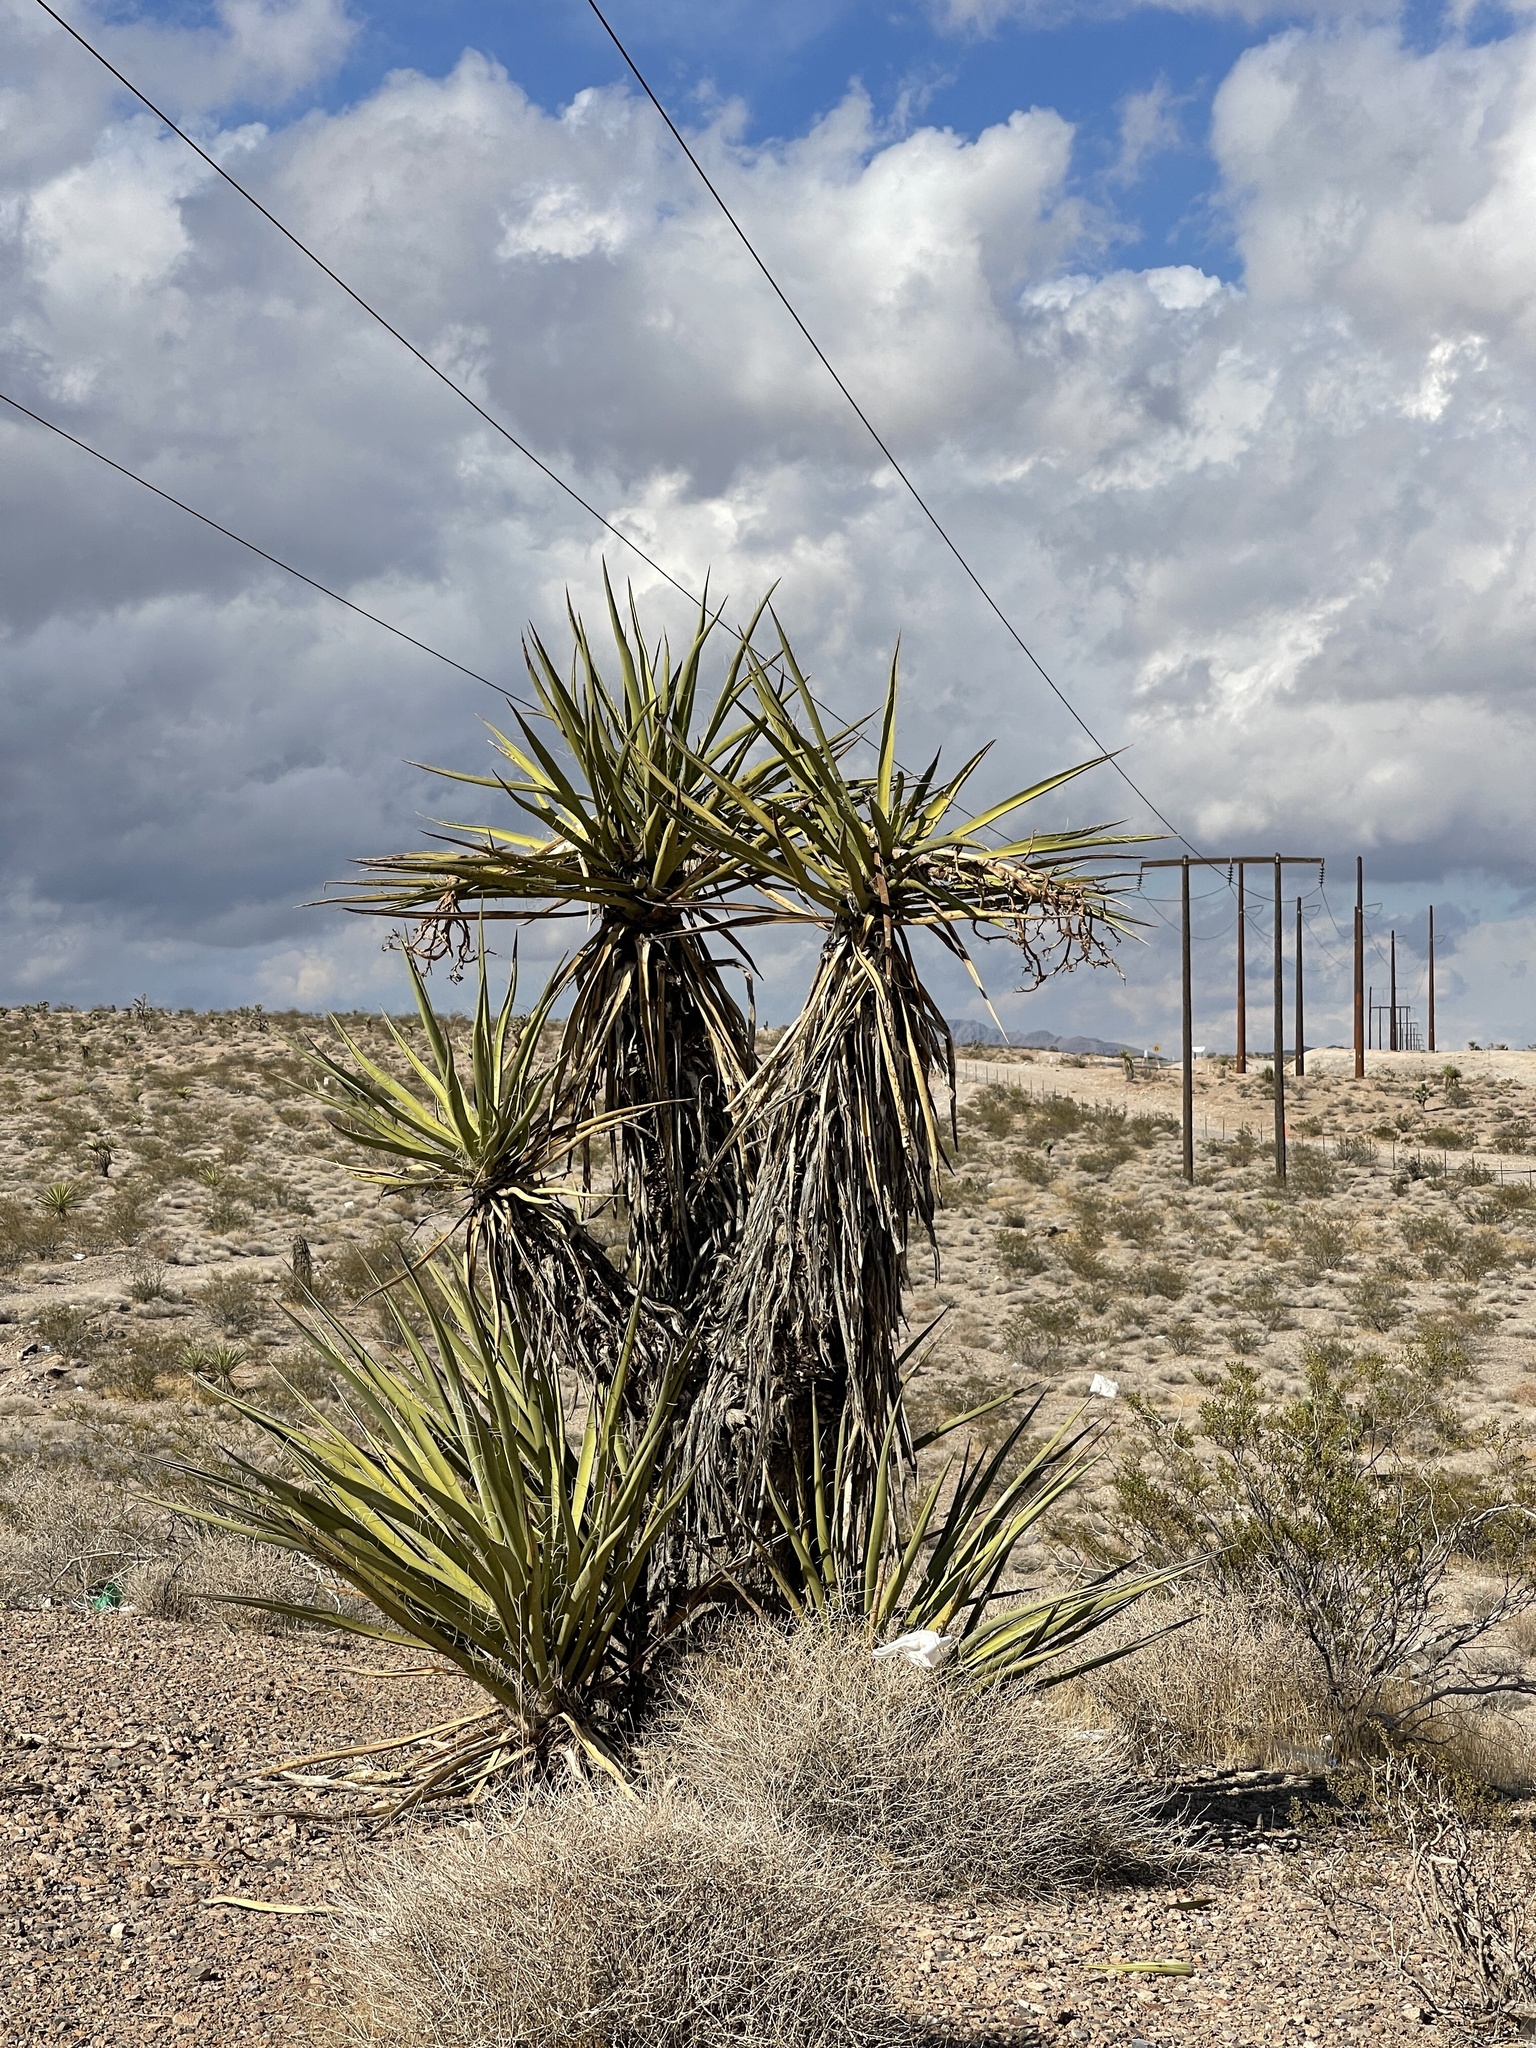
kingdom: Plantae
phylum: Tracheophyta
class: Liliopsida
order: Asparagales
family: Asparagaceae
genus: Yucca
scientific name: Yucca schidigera
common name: Mojave yucca
